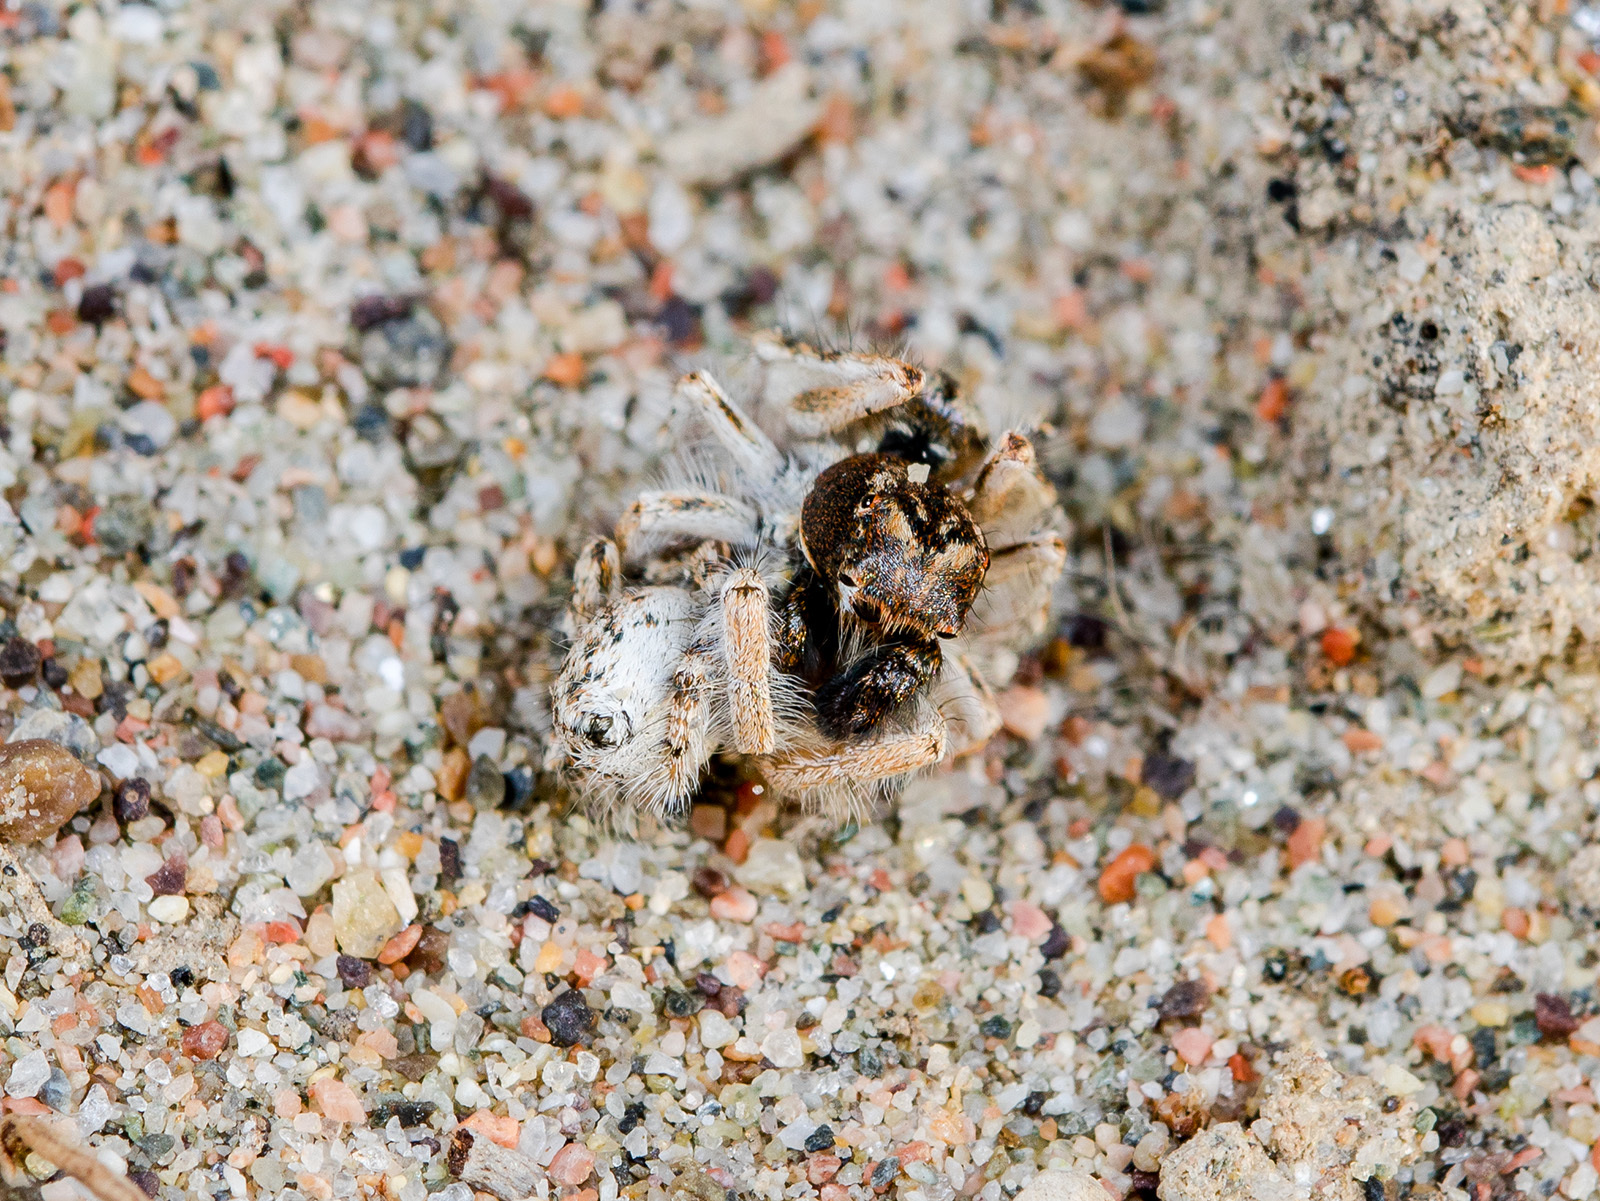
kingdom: Animalia
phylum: Arthropoda
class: Arachnida
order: Araneae
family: Salticidae
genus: Yllenus
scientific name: Yllenus uiguricus
